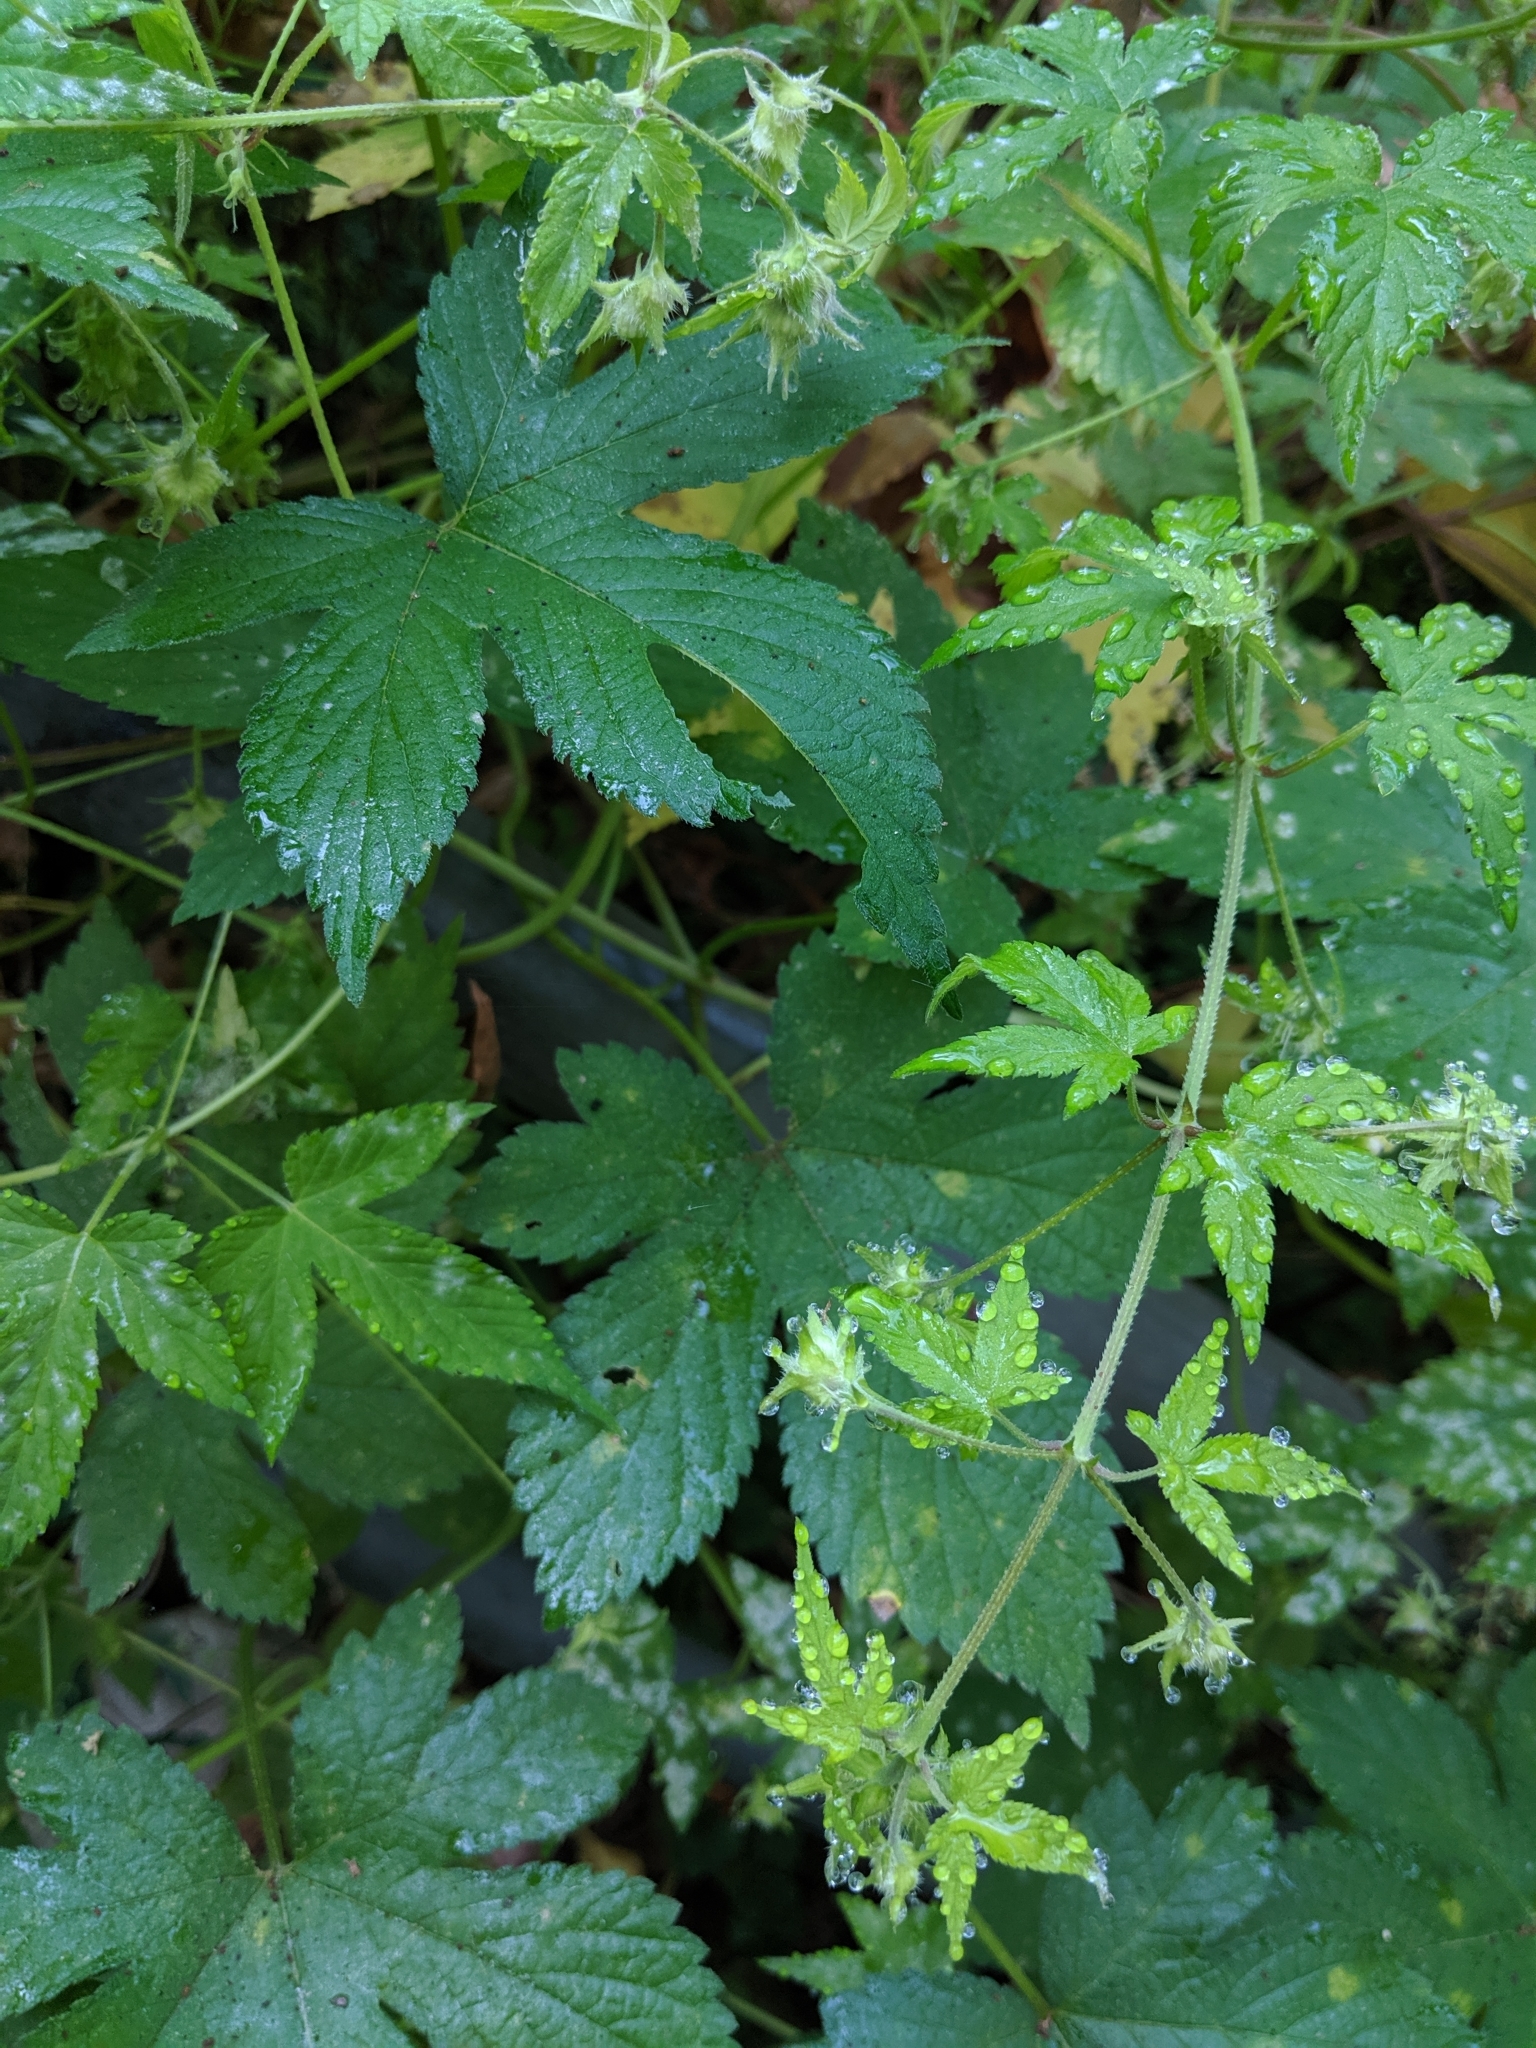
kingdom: Plantae
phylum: Tracheophyta
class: Magnoliopsida
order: Rosales
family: Cannabaceae
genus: Humulus
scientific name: Humulus scandens
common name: Japanese hop
